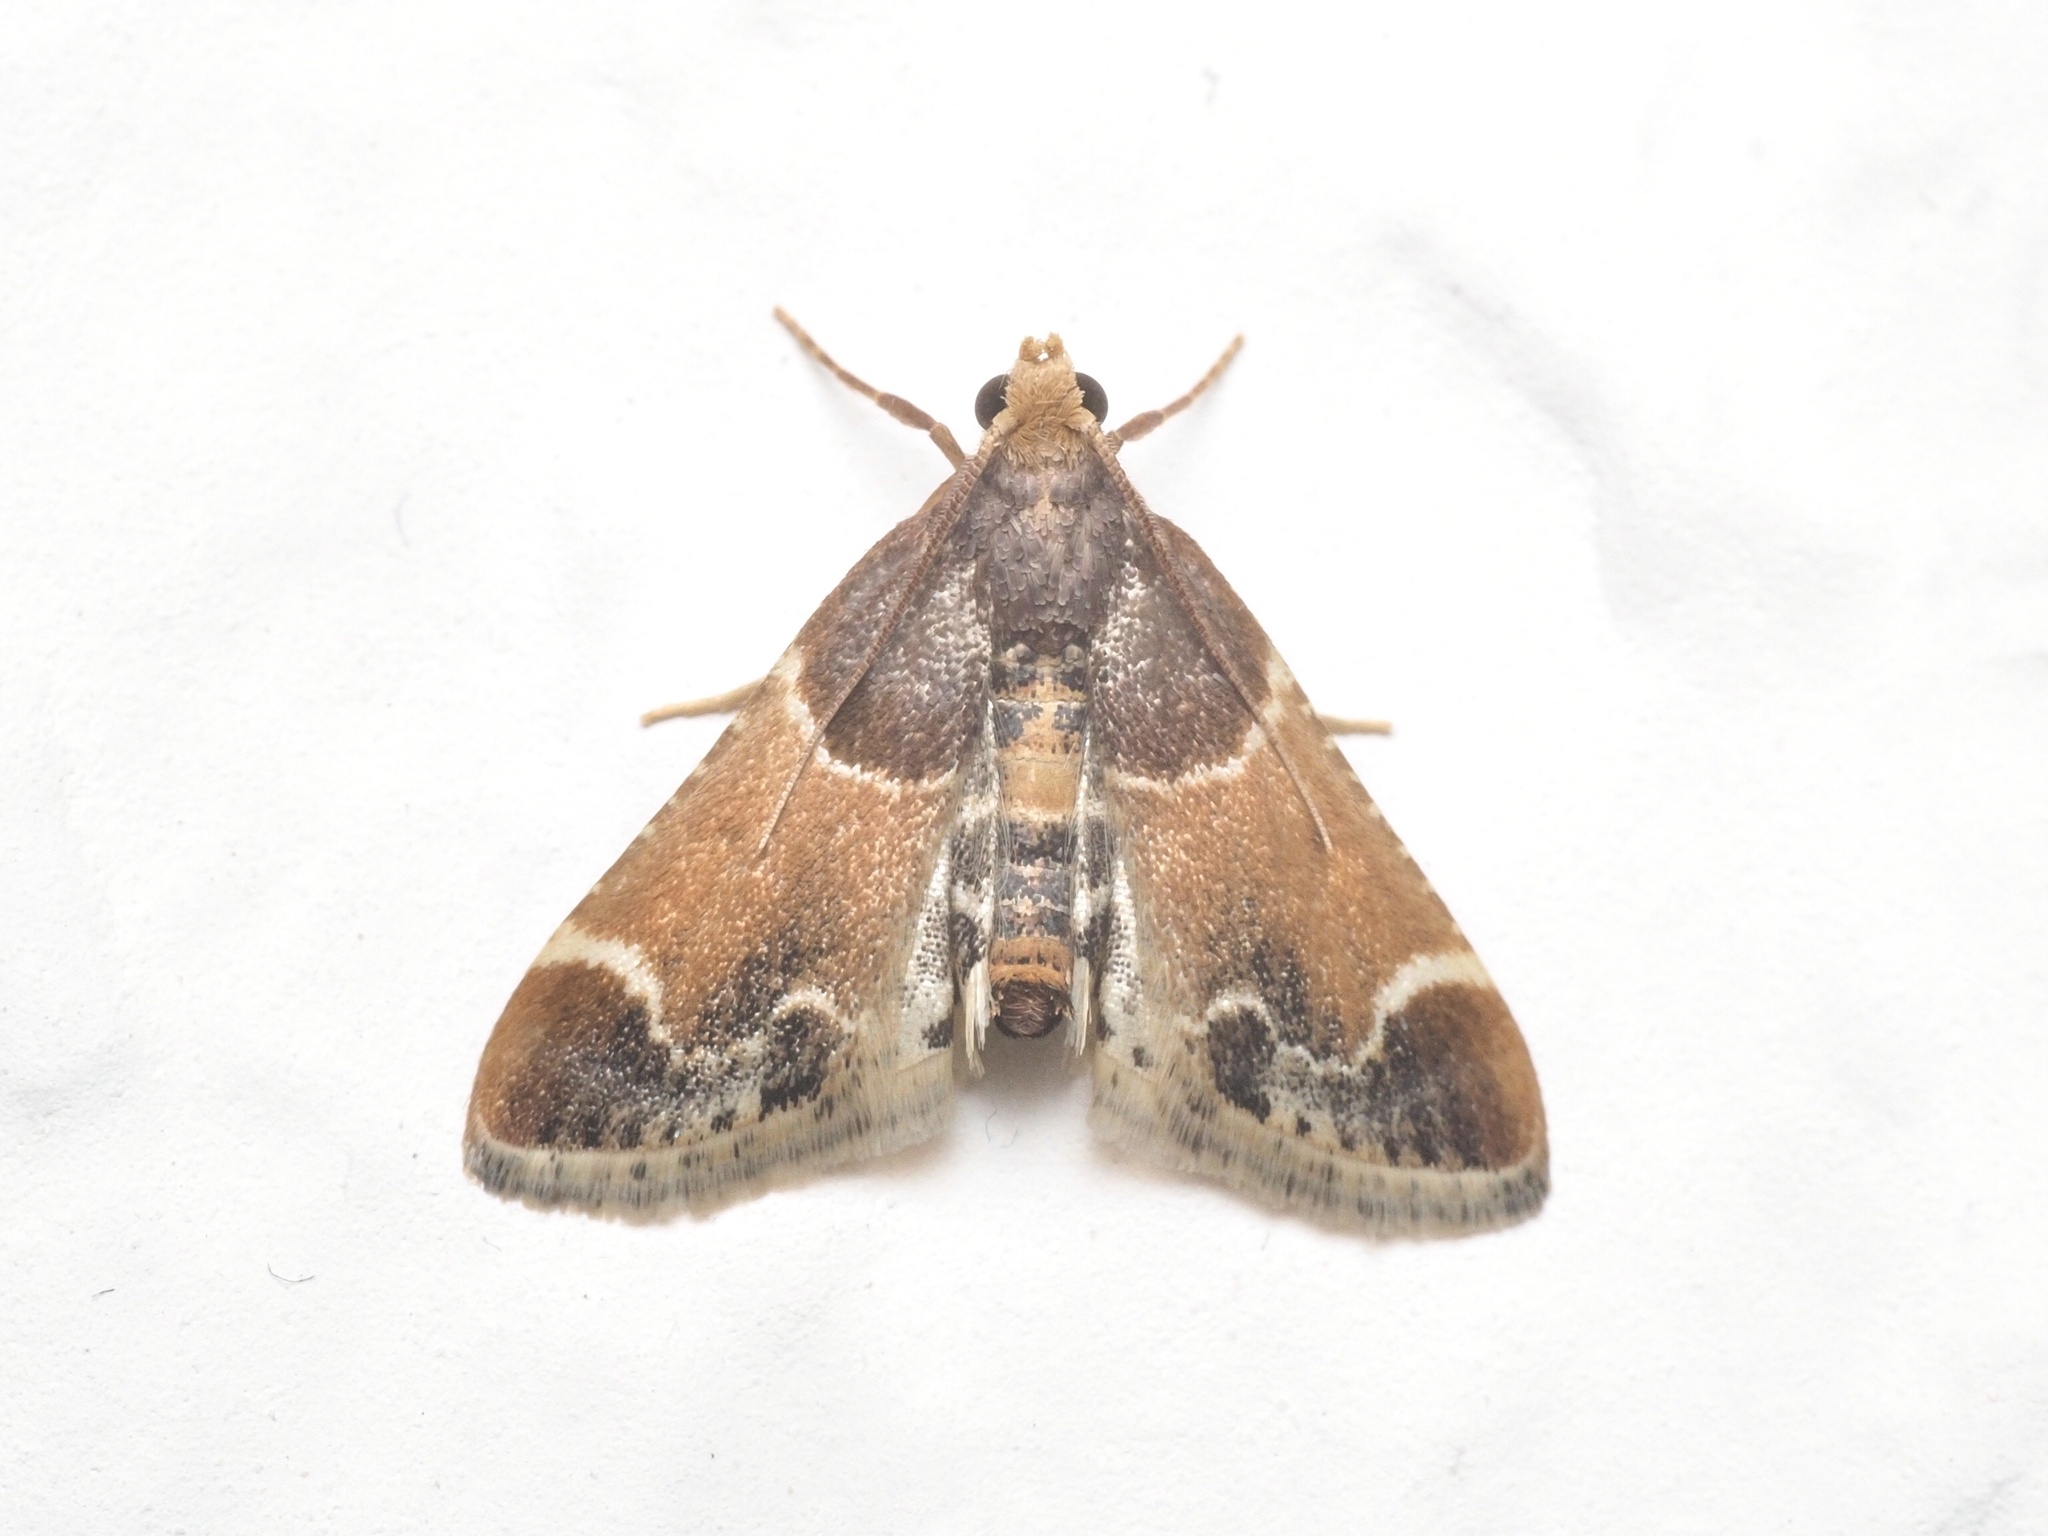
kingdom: Animalia
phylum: Arthropoda
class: Insecta
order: Lepidoptera
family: Pyralidae
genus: Pyralis
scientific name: Pyralis farinalis
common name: Meal moth
